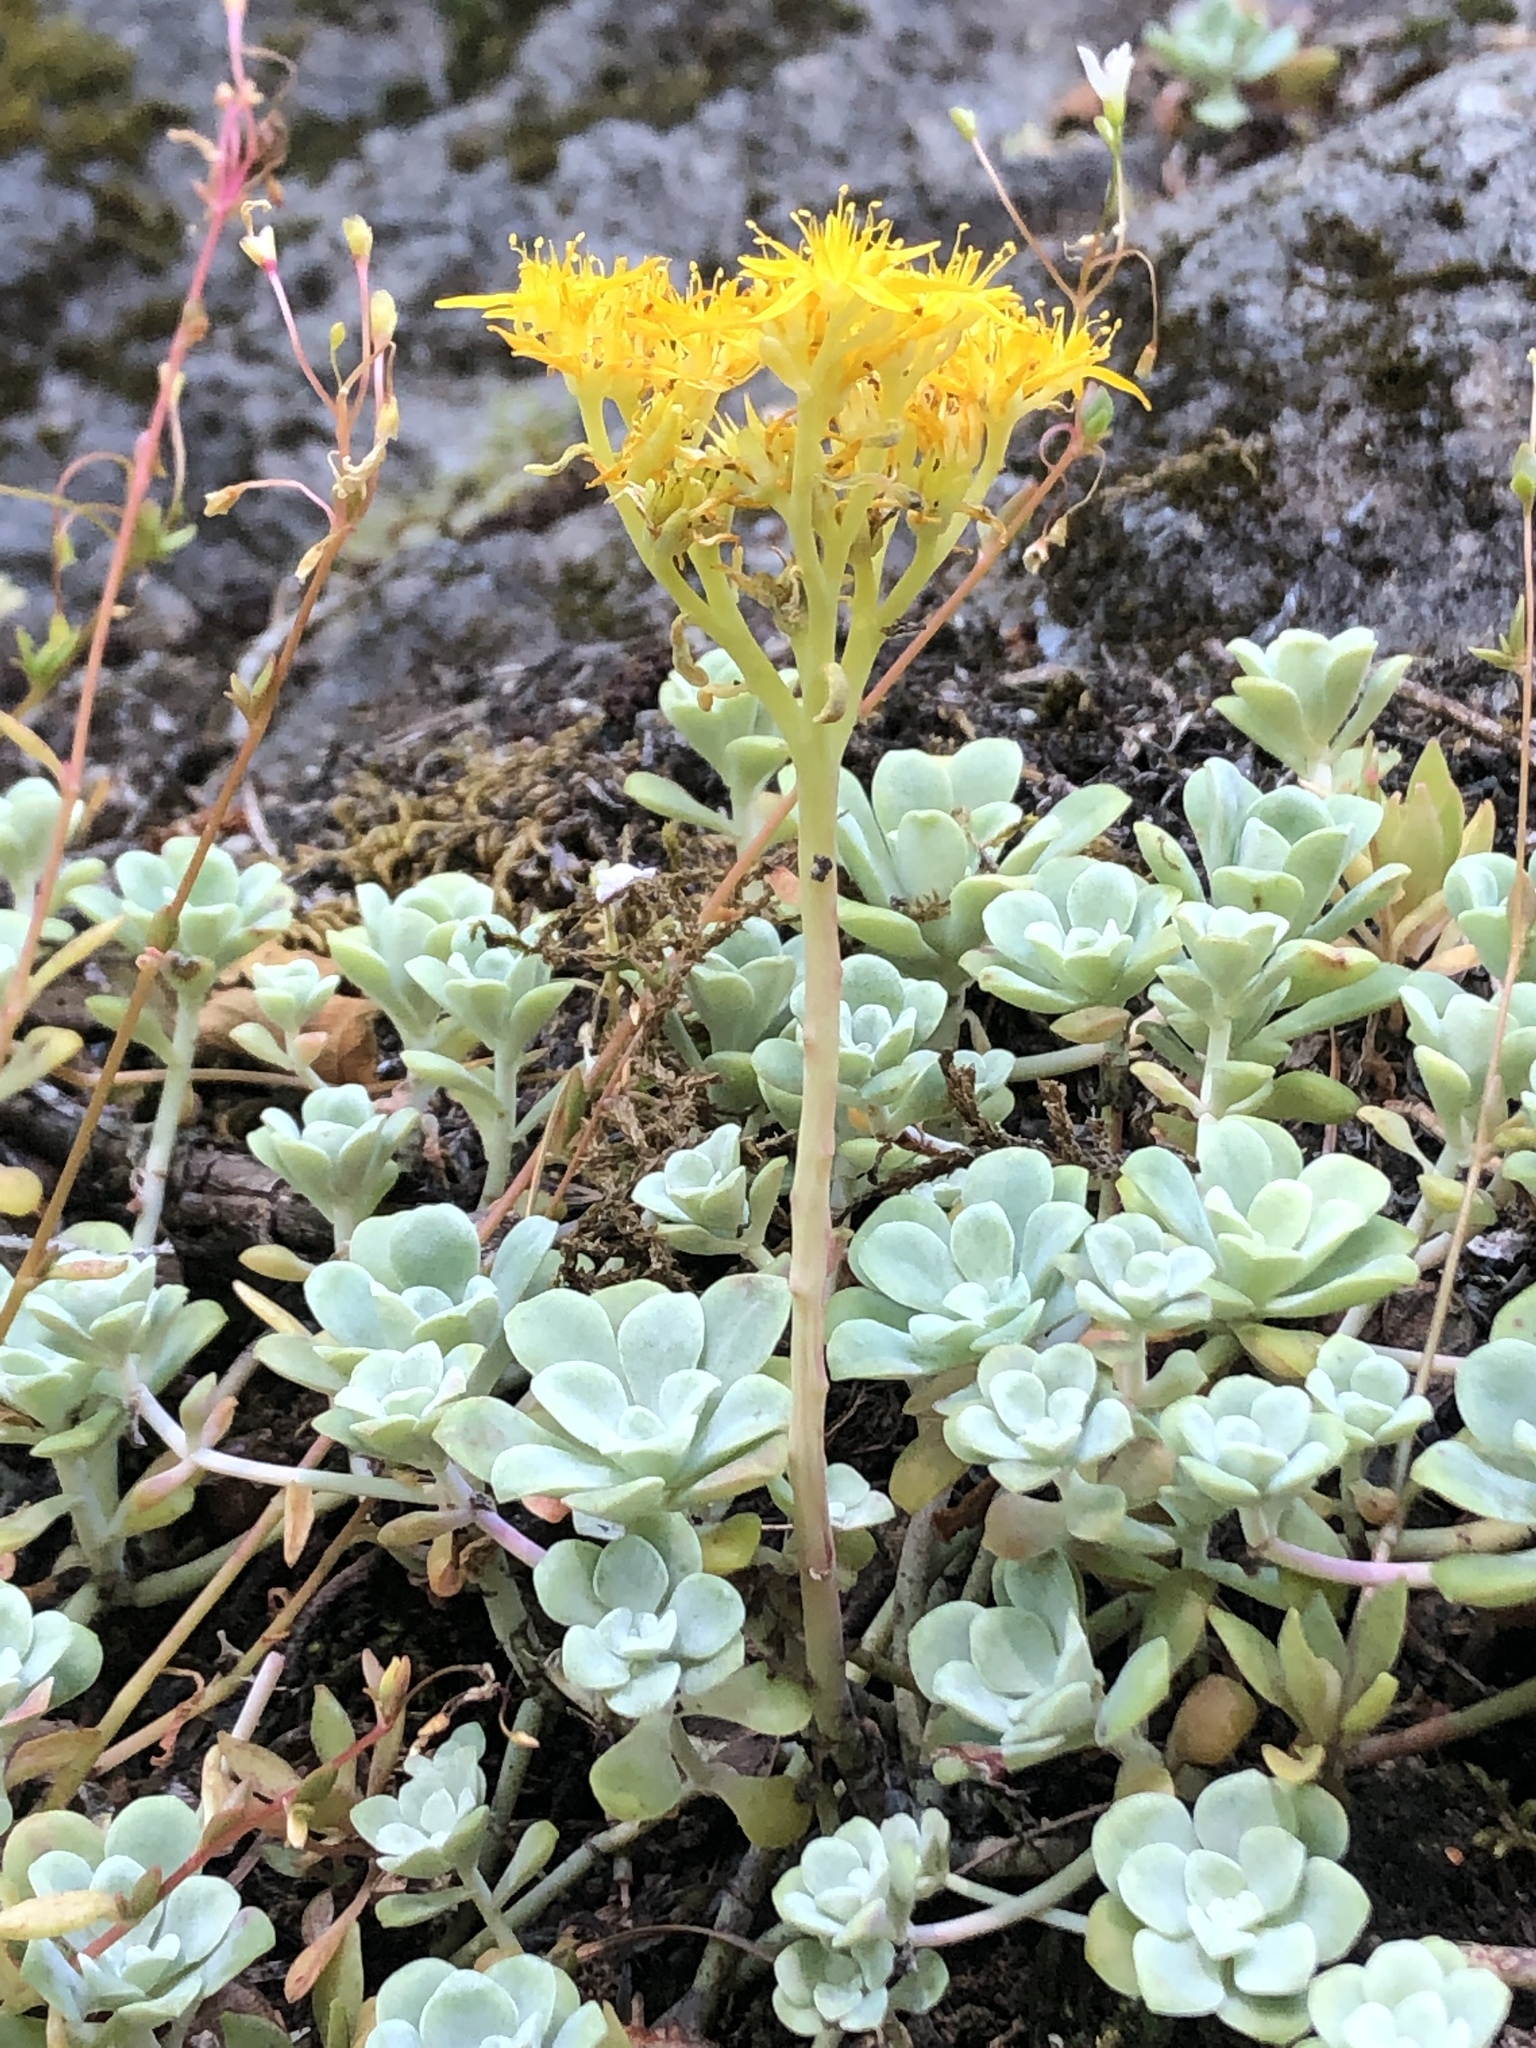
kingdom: Plantae
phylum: Tracheophyta
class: Magnoliopsida
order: Saxifragales
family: Crassulaceae
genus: Sedum
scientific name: Sedum spathulifolium
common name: Colorado stonecrop
